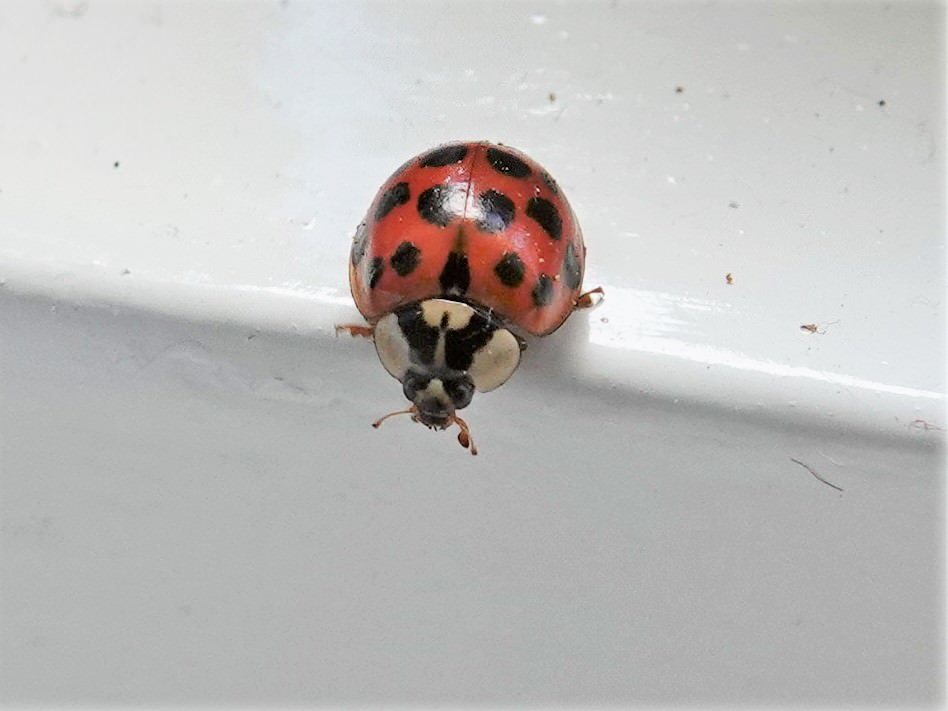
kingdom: Animalia
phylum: Arthropoda
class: Insecta
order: Coleoptera
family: Coccinellidae
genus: Harmonia
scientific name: Harmonia axyridis
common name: Harlequin ladybird
